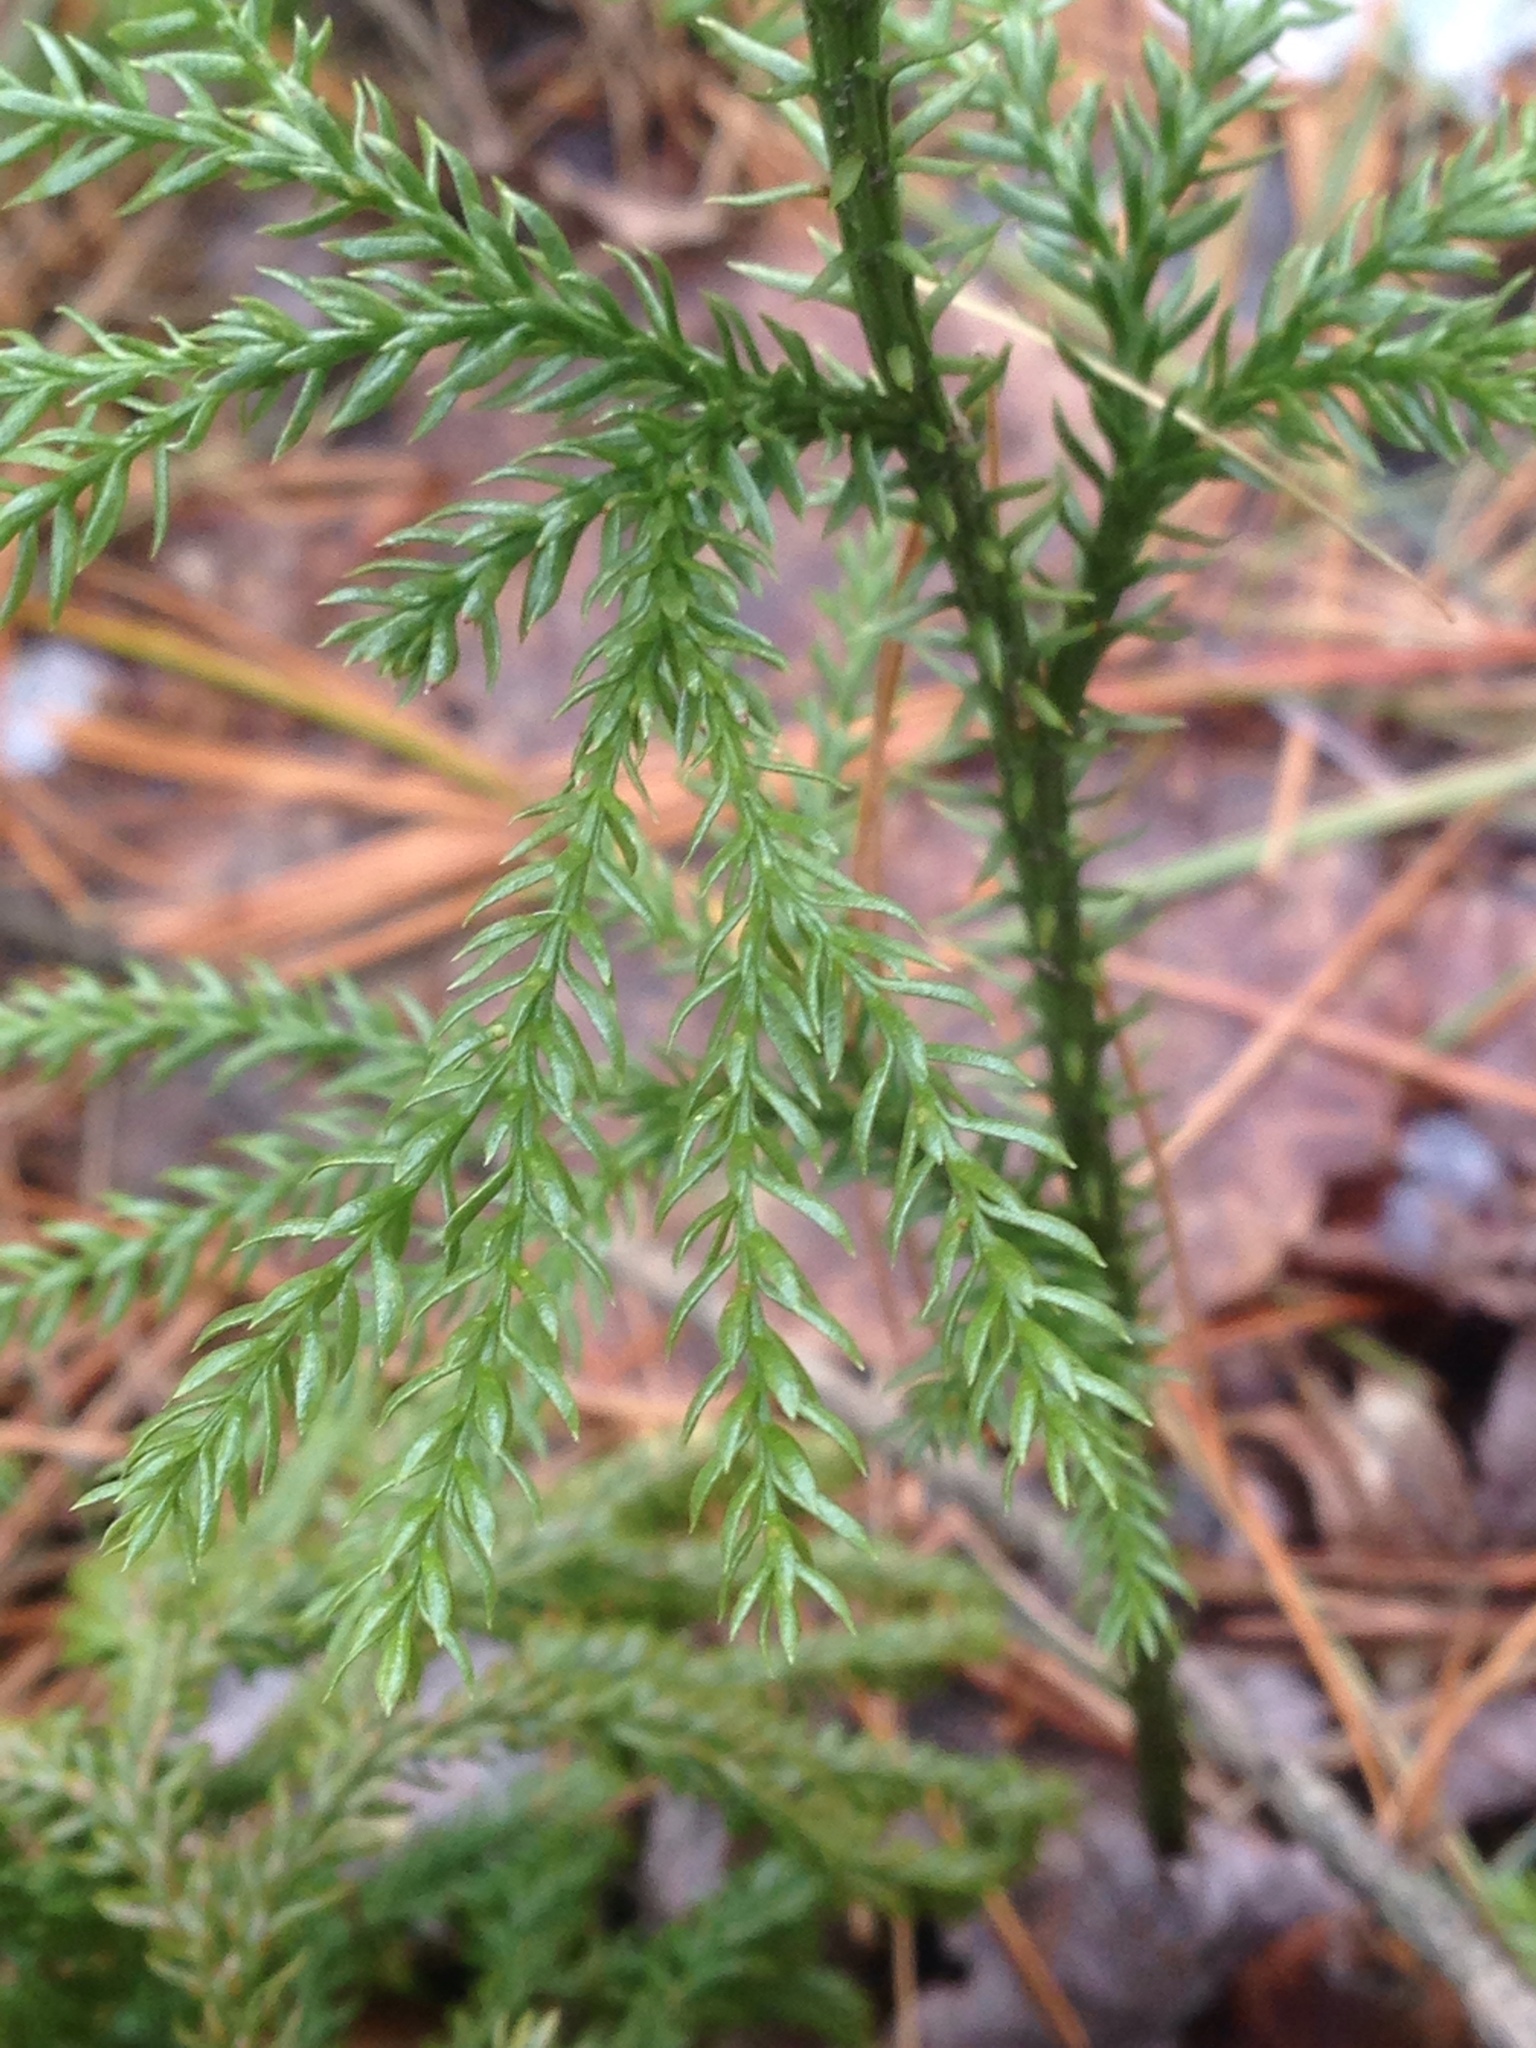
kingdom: Plantae
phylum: Tracheophyta
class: Lycopodiopsida
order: Lycopodiales
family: Lycopodiaceae
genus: Dendrolycopodium
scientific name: Dendrolycopodium dendroideum
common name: Northern tree-clubmoss
